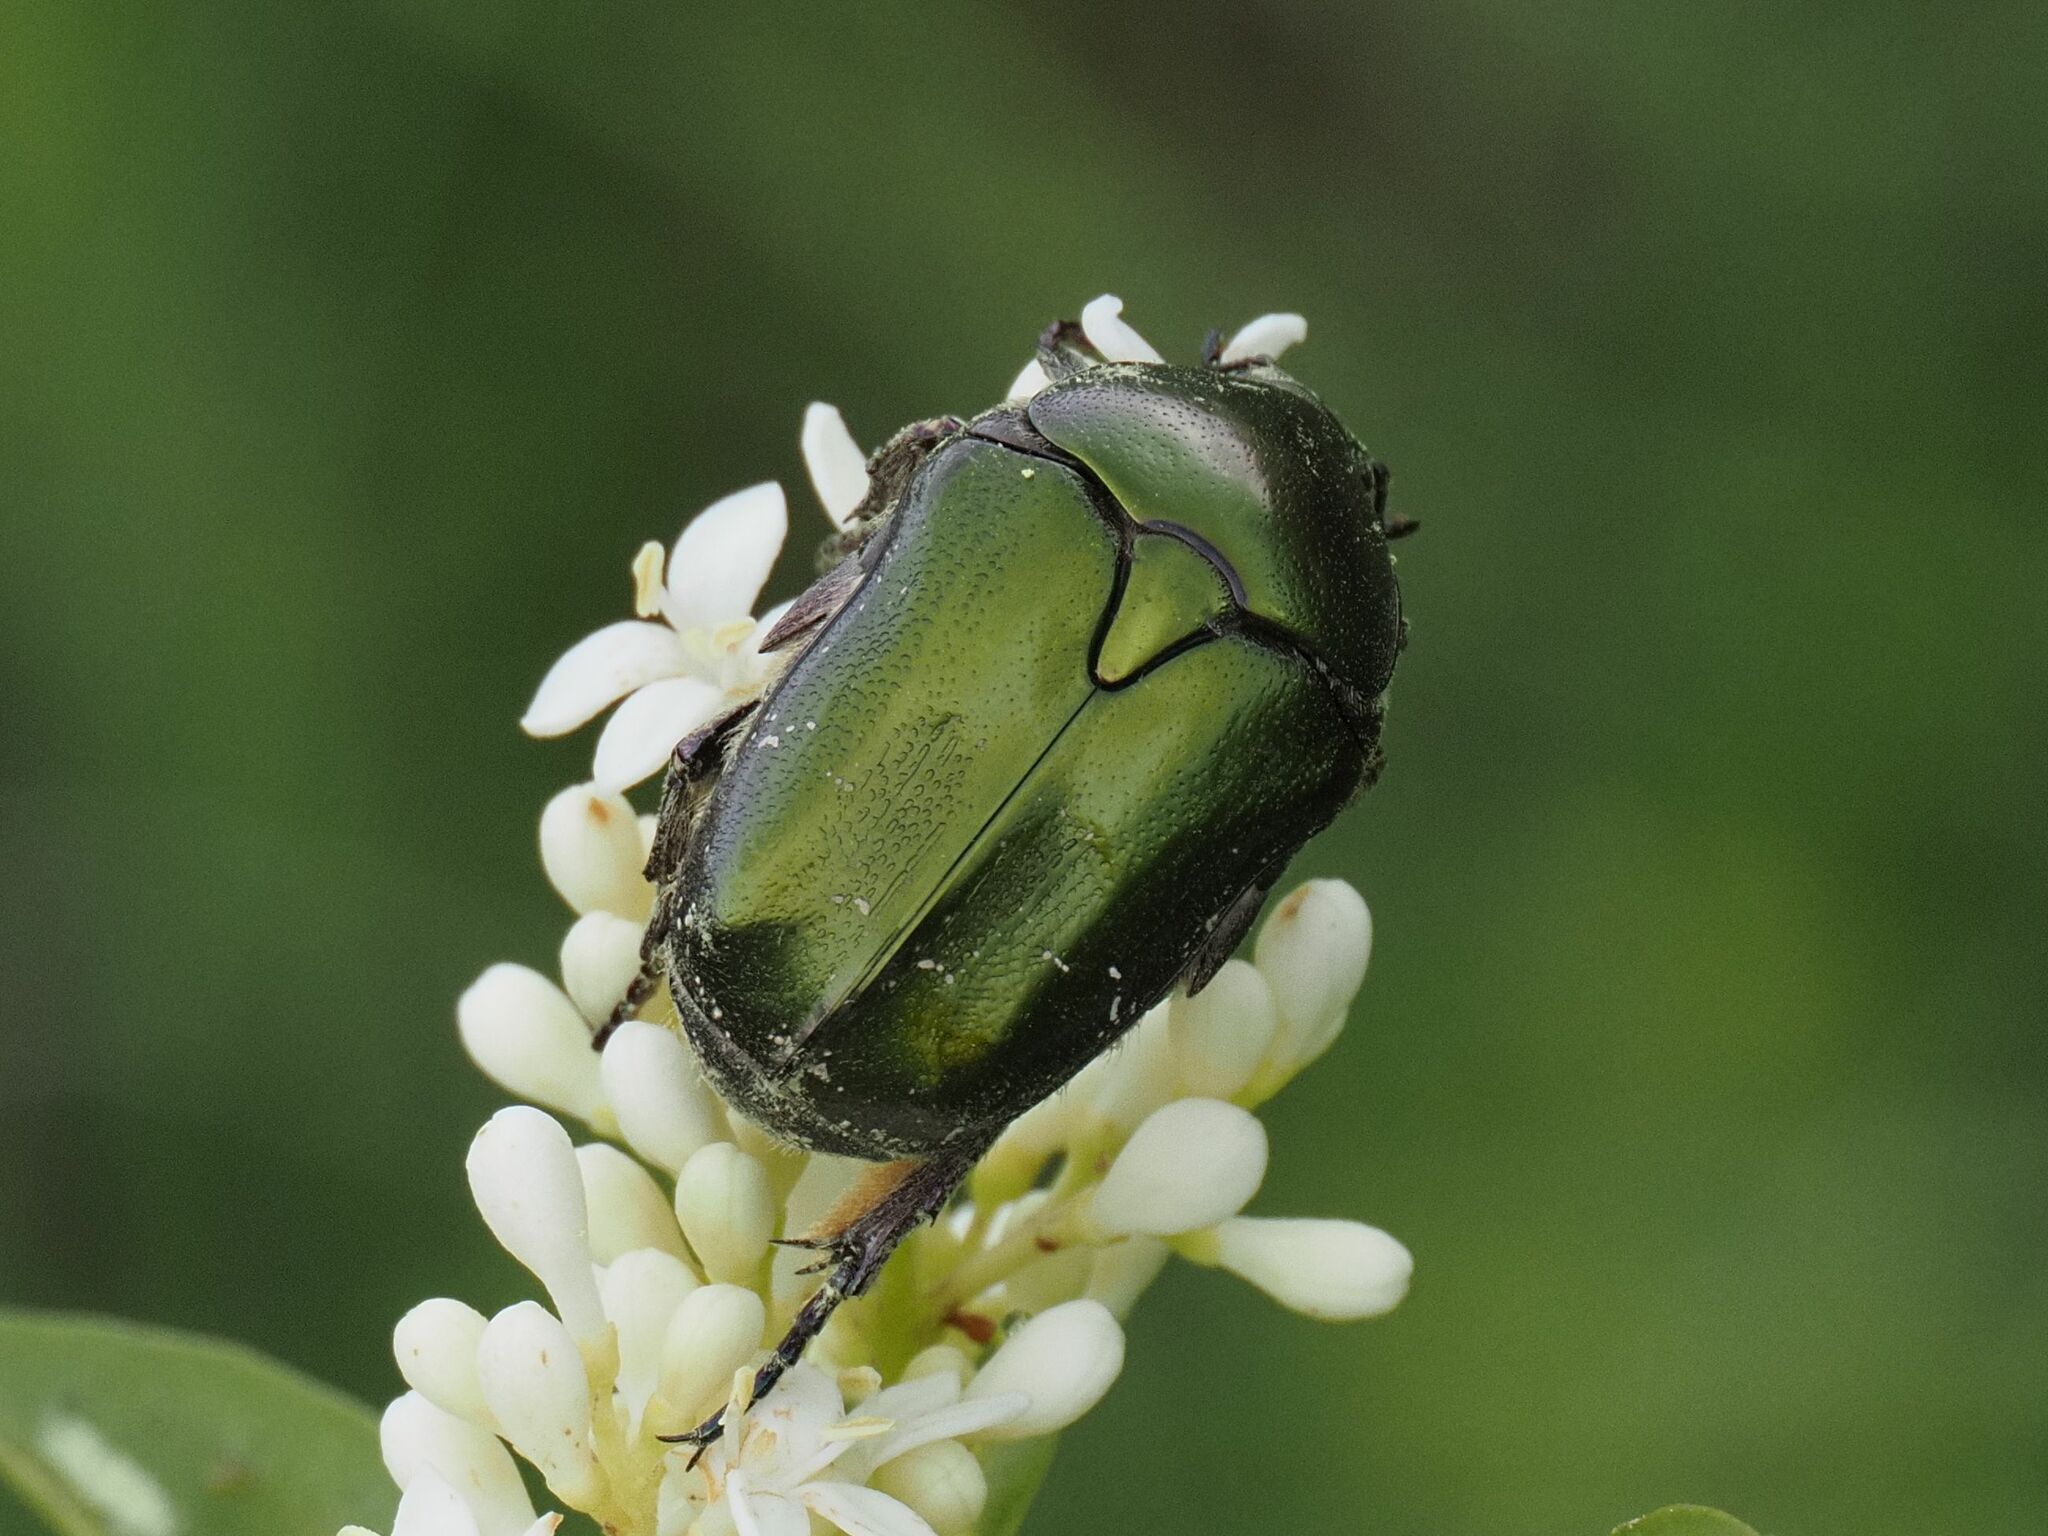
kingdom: Animalia
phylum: Arthropoda
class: Insecta
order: Coleoptera
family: Scarabaeidae
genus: Protaetia
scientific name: Protaetia cuprea
